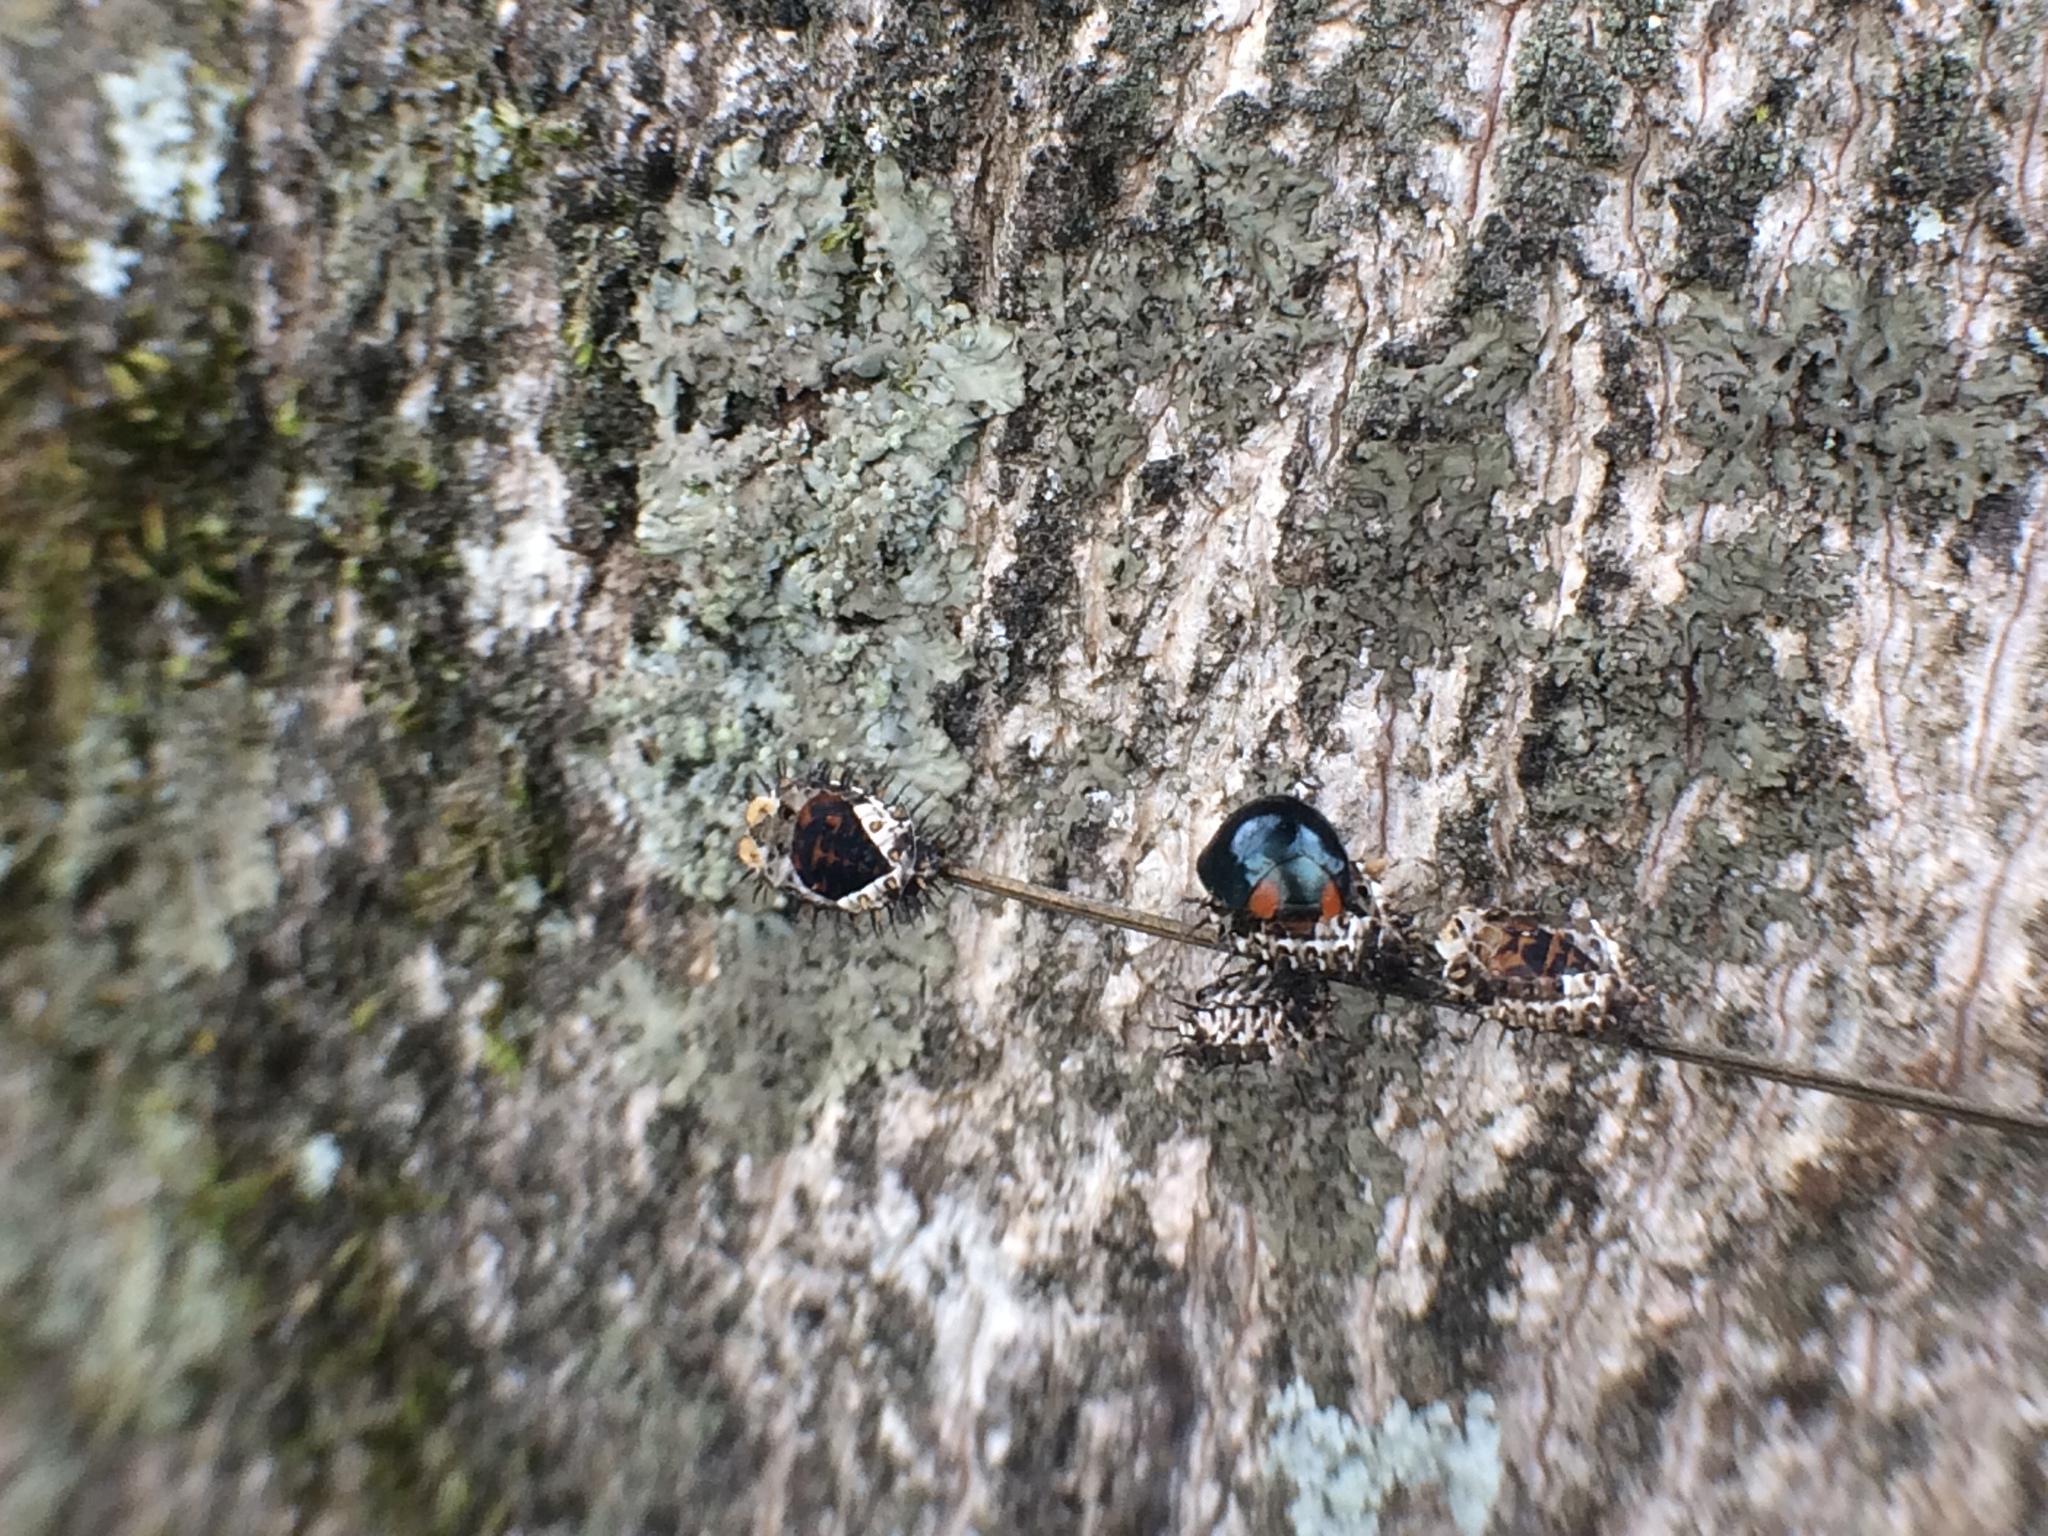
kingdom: Animalia
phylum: Arthropoda
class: Insecta
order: Coleoptera
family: Coccinellidae
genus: Curinus
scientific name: Curinus coeruleus
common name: Ladybird beetle
